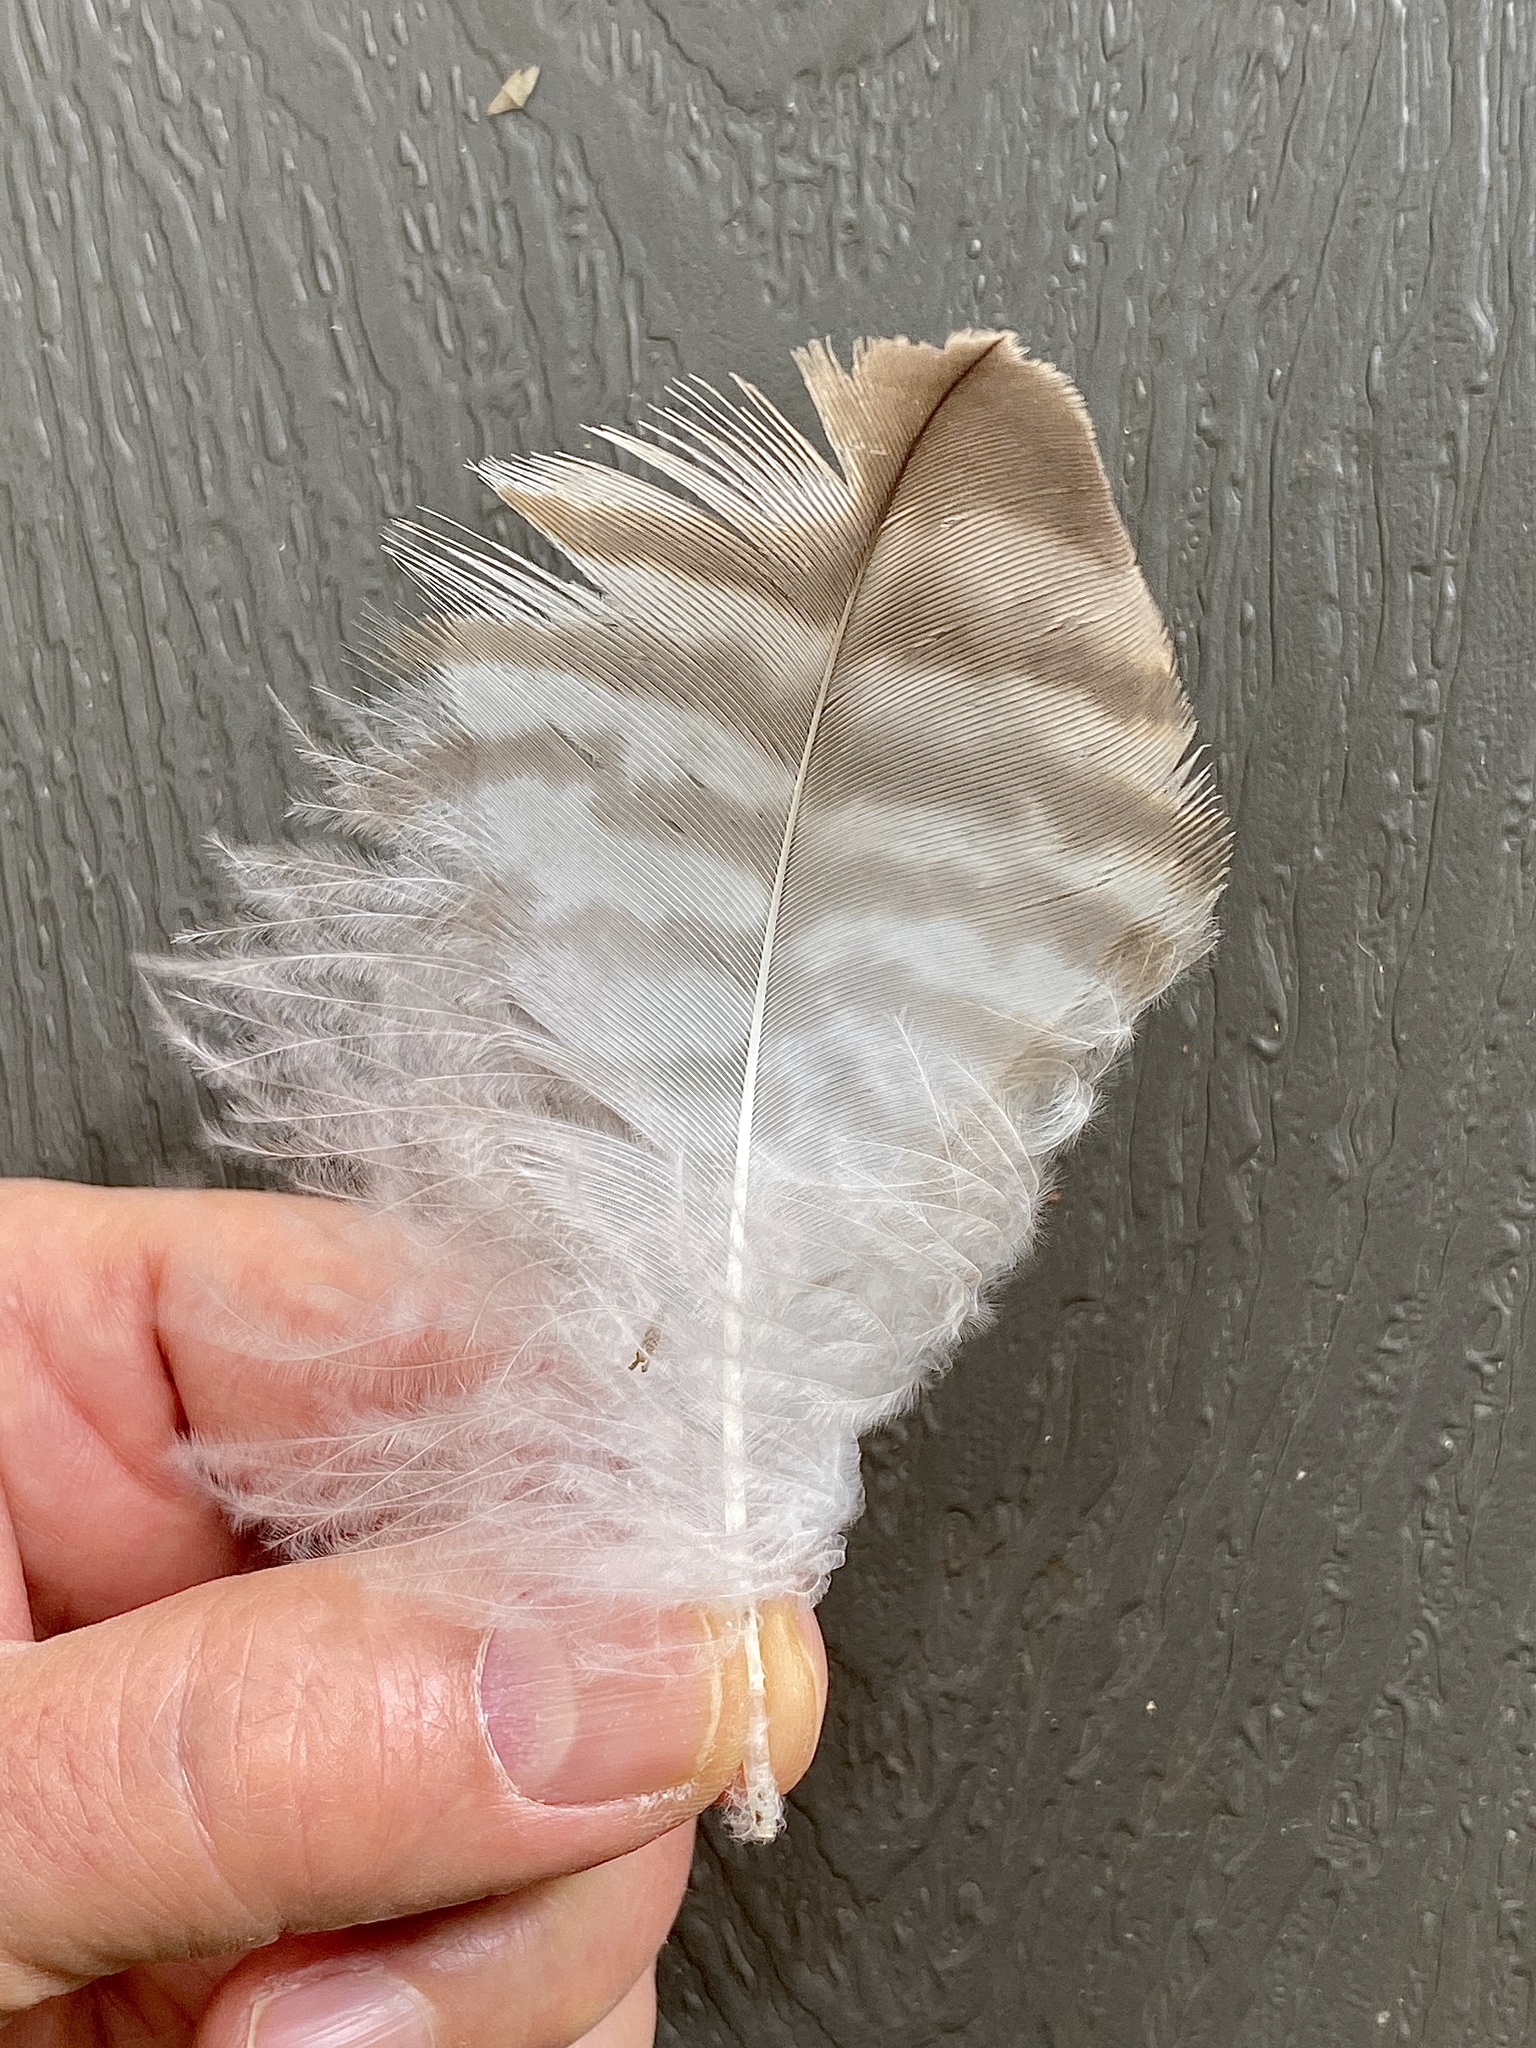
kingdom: Animalia
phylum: Chordata
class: Aves
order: Accipitriformes
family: Accipitridae
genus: Buteo
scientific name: Buteo jamaicensis
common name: Red-tailed hawk
